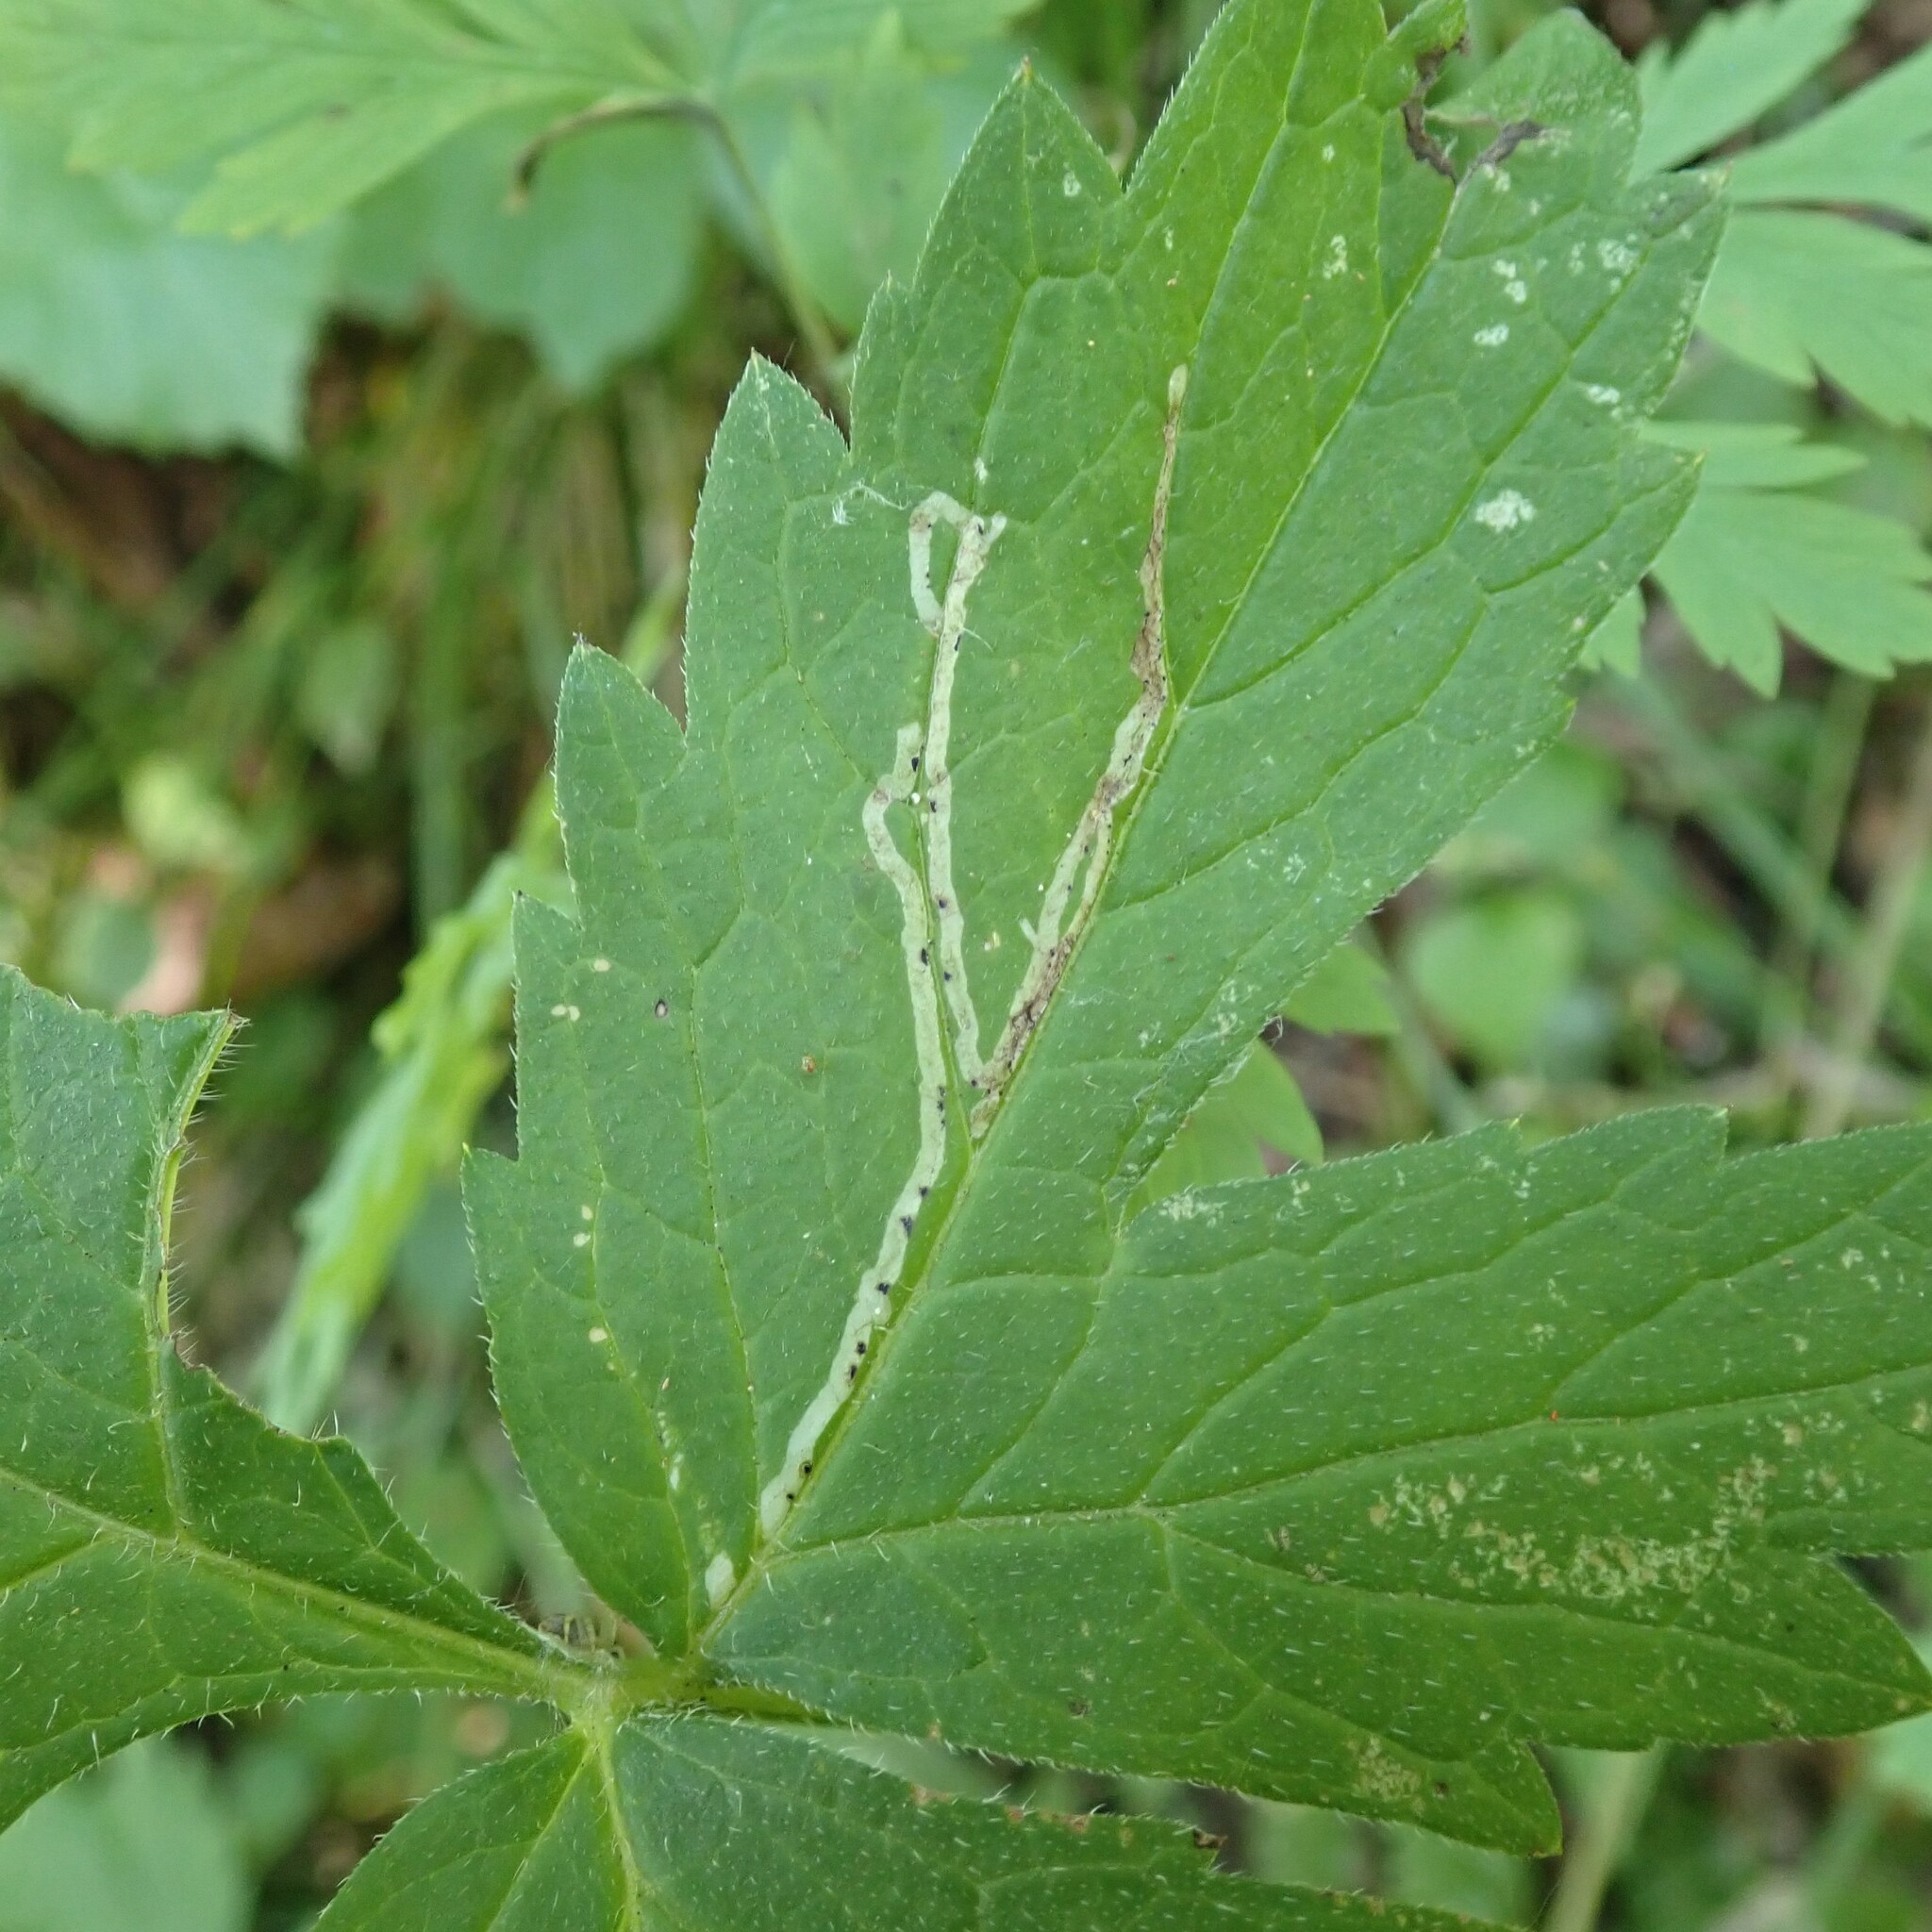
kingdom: Animalia
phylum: Arthropoda
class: Insecta
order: Diptera
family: Agromyzidae
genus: Phytomyza
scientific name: Phytomyza nemophilae
